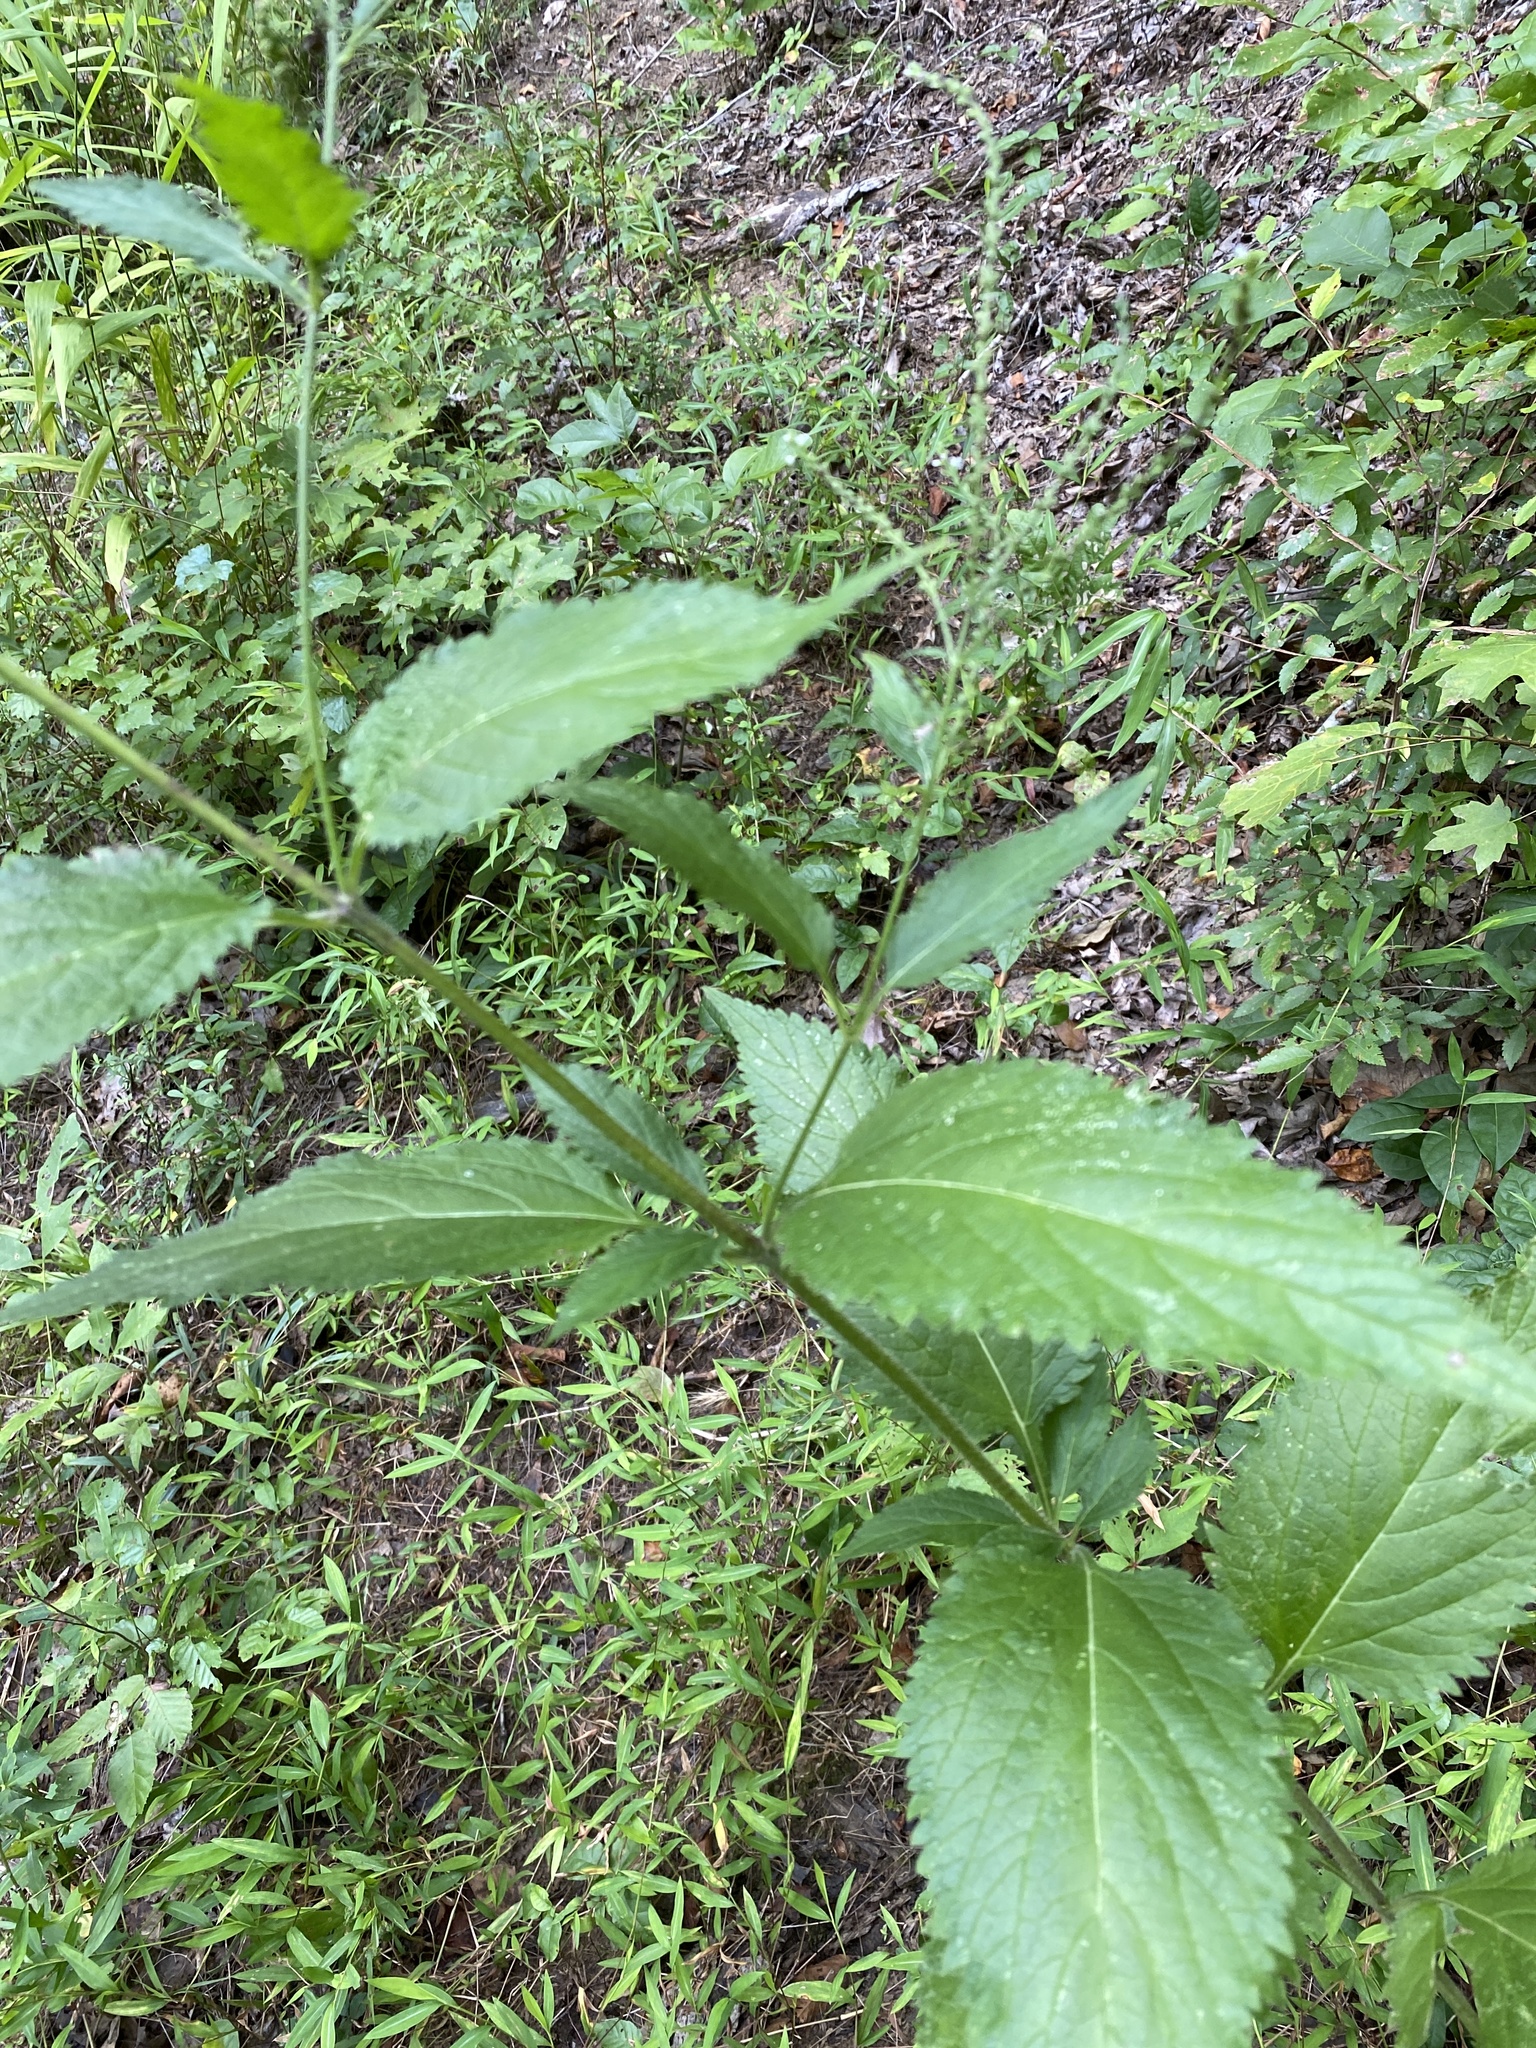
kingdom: Plantae
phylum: Tracheophyta
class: Magnoliopsida
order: Lamiales
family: Verbenaceae
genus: Verbena
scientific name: Verbena urticifolia
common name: Nettle-leaved vervain
